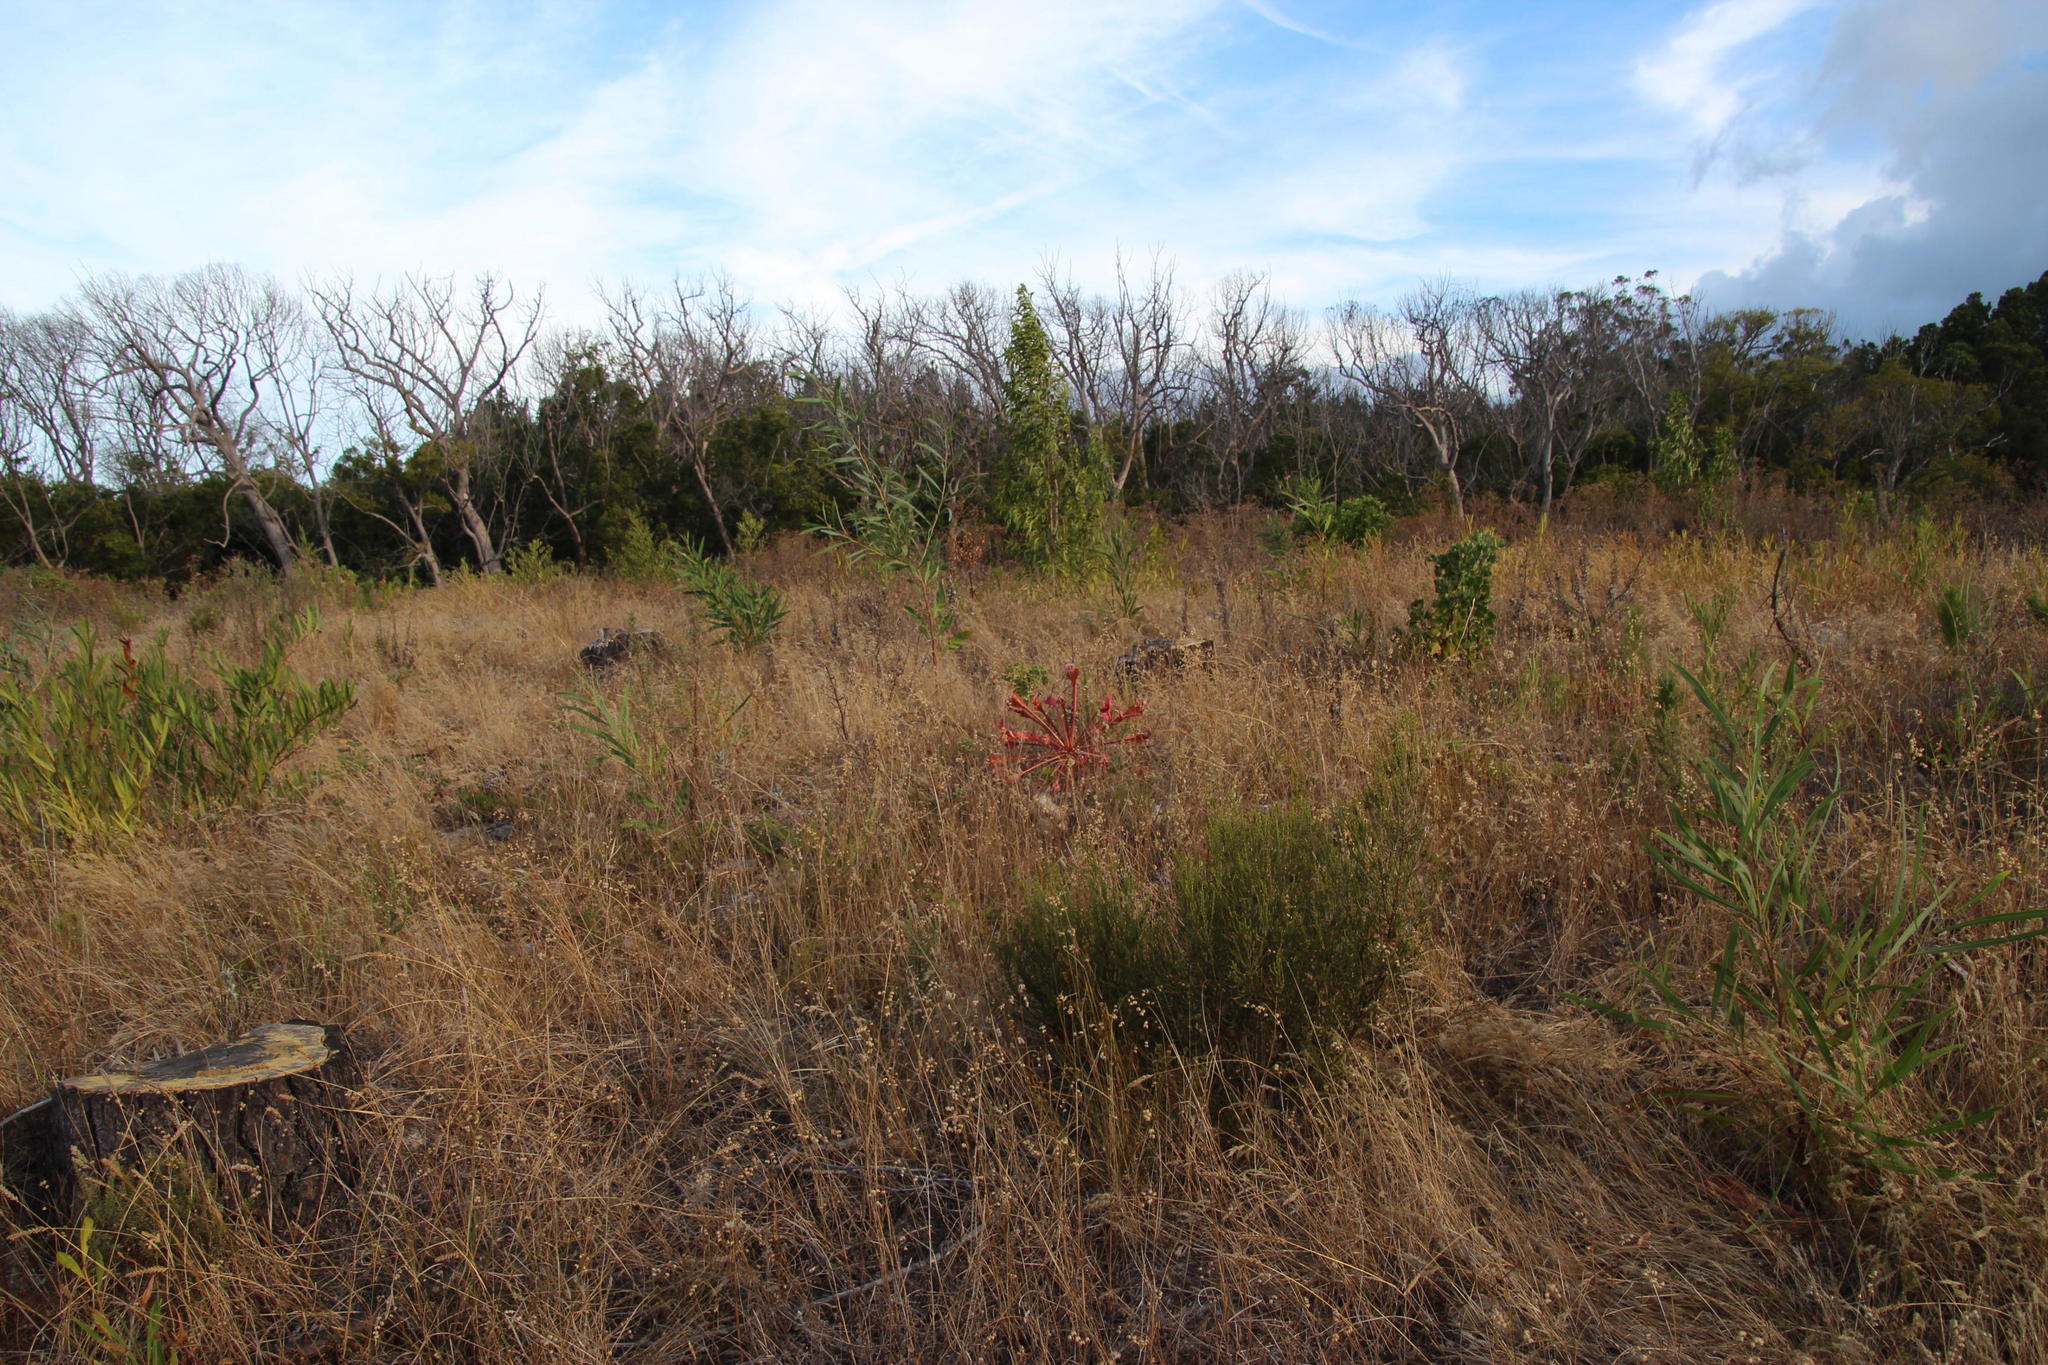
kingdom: Plantae
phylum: Tracheophyta
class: Liliopsida
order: Asparagales
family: Amaryllidaceae
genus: Brunsvigia
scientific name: Brunsvigia orientalis
